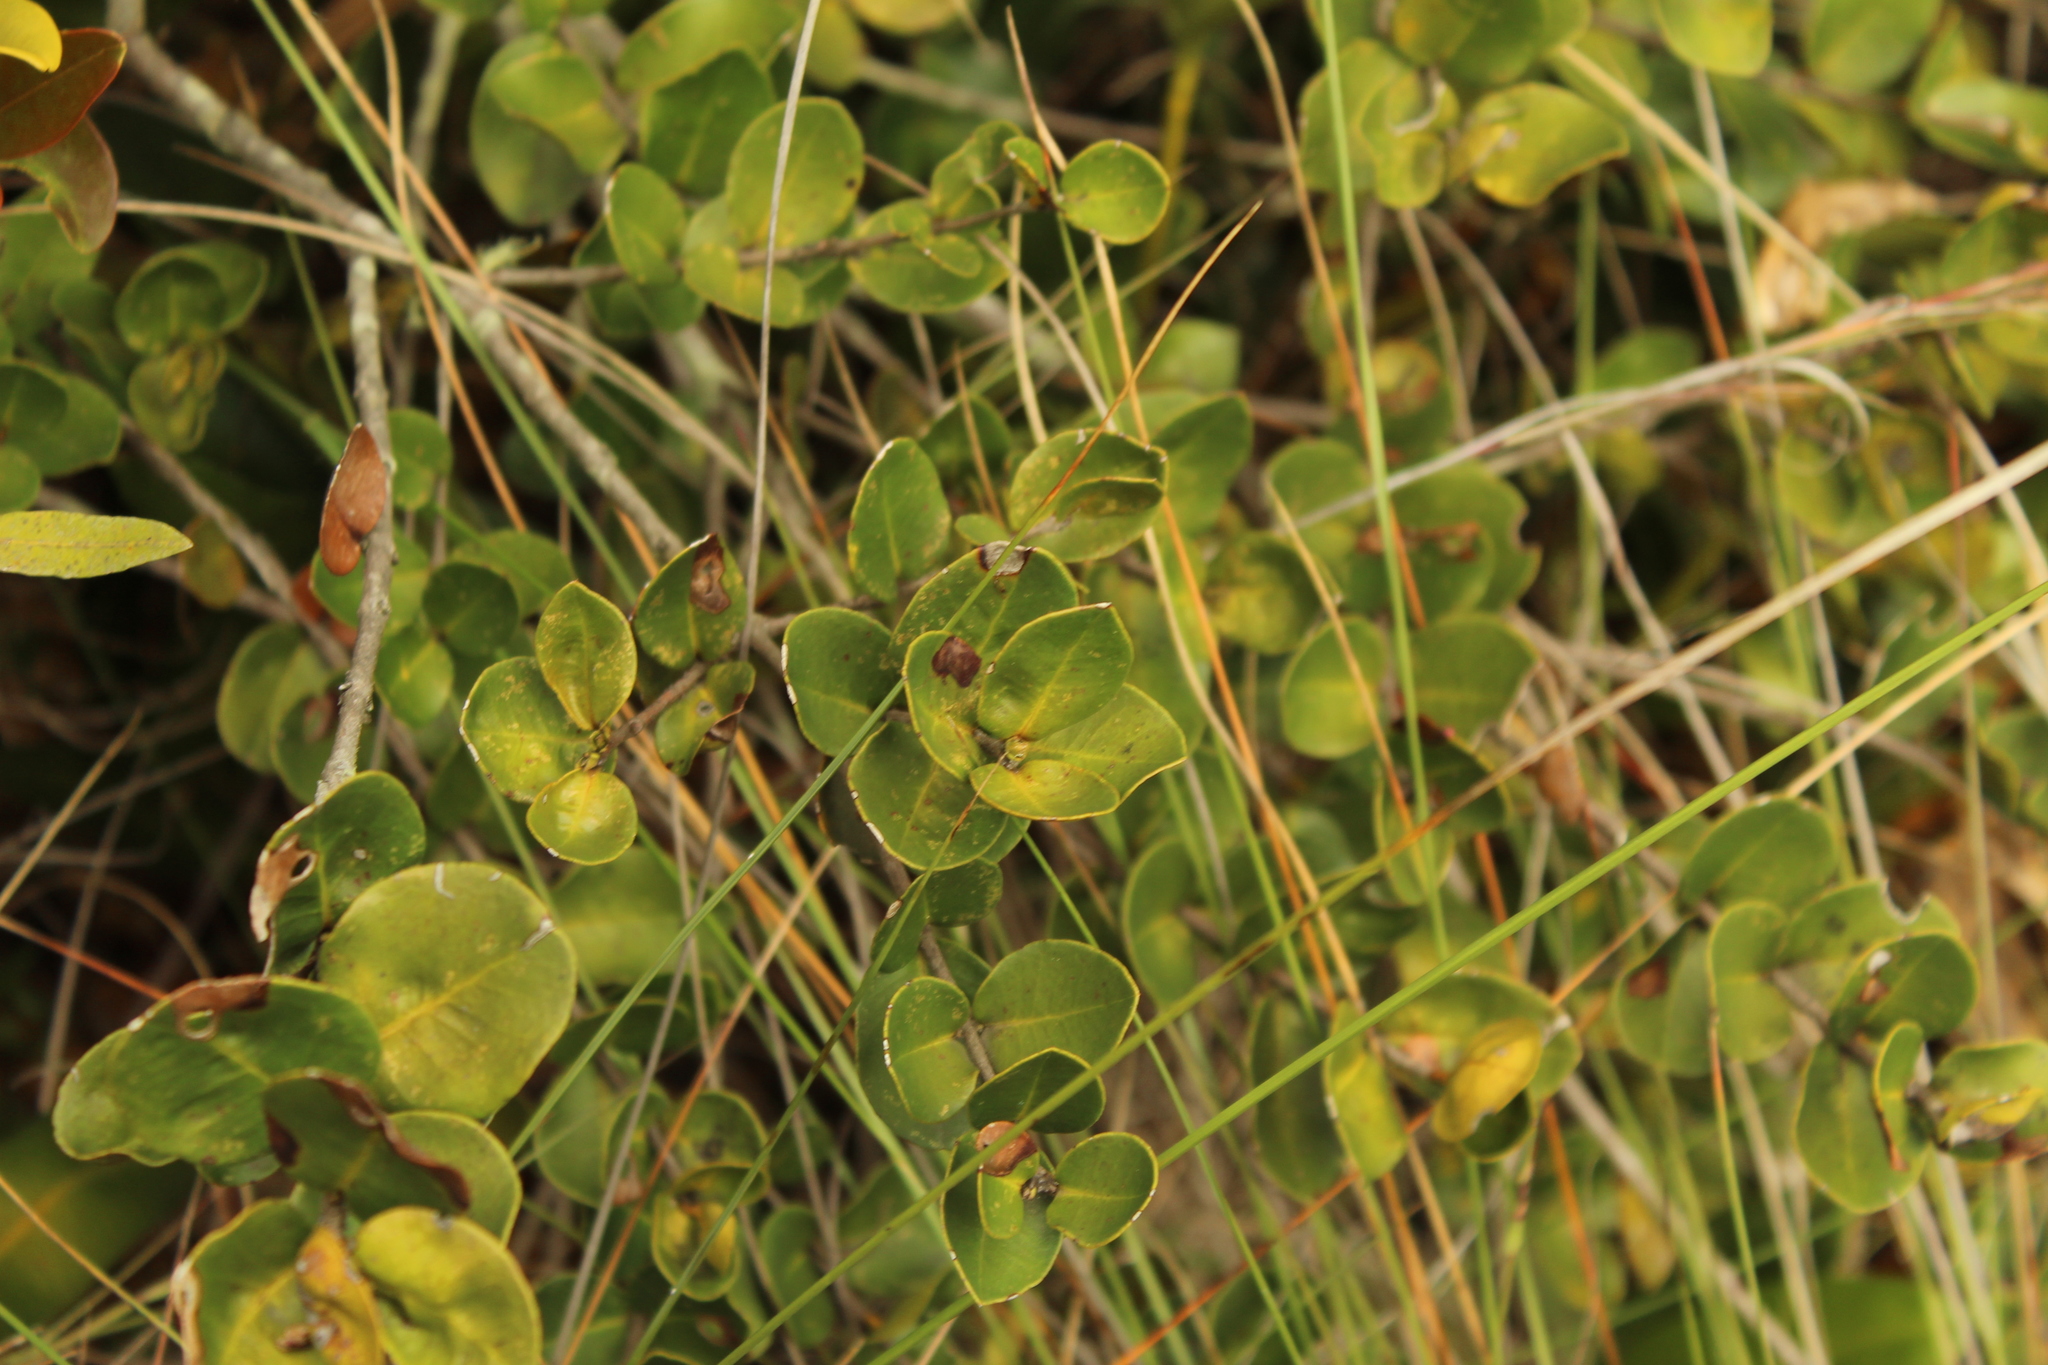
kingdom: Plantae
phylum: Tracheophyta
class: Magnoliopsida
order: Myrtales
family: Myrtaceae
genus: Myrcianthes
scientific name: Myrcianthes leucoxyla
